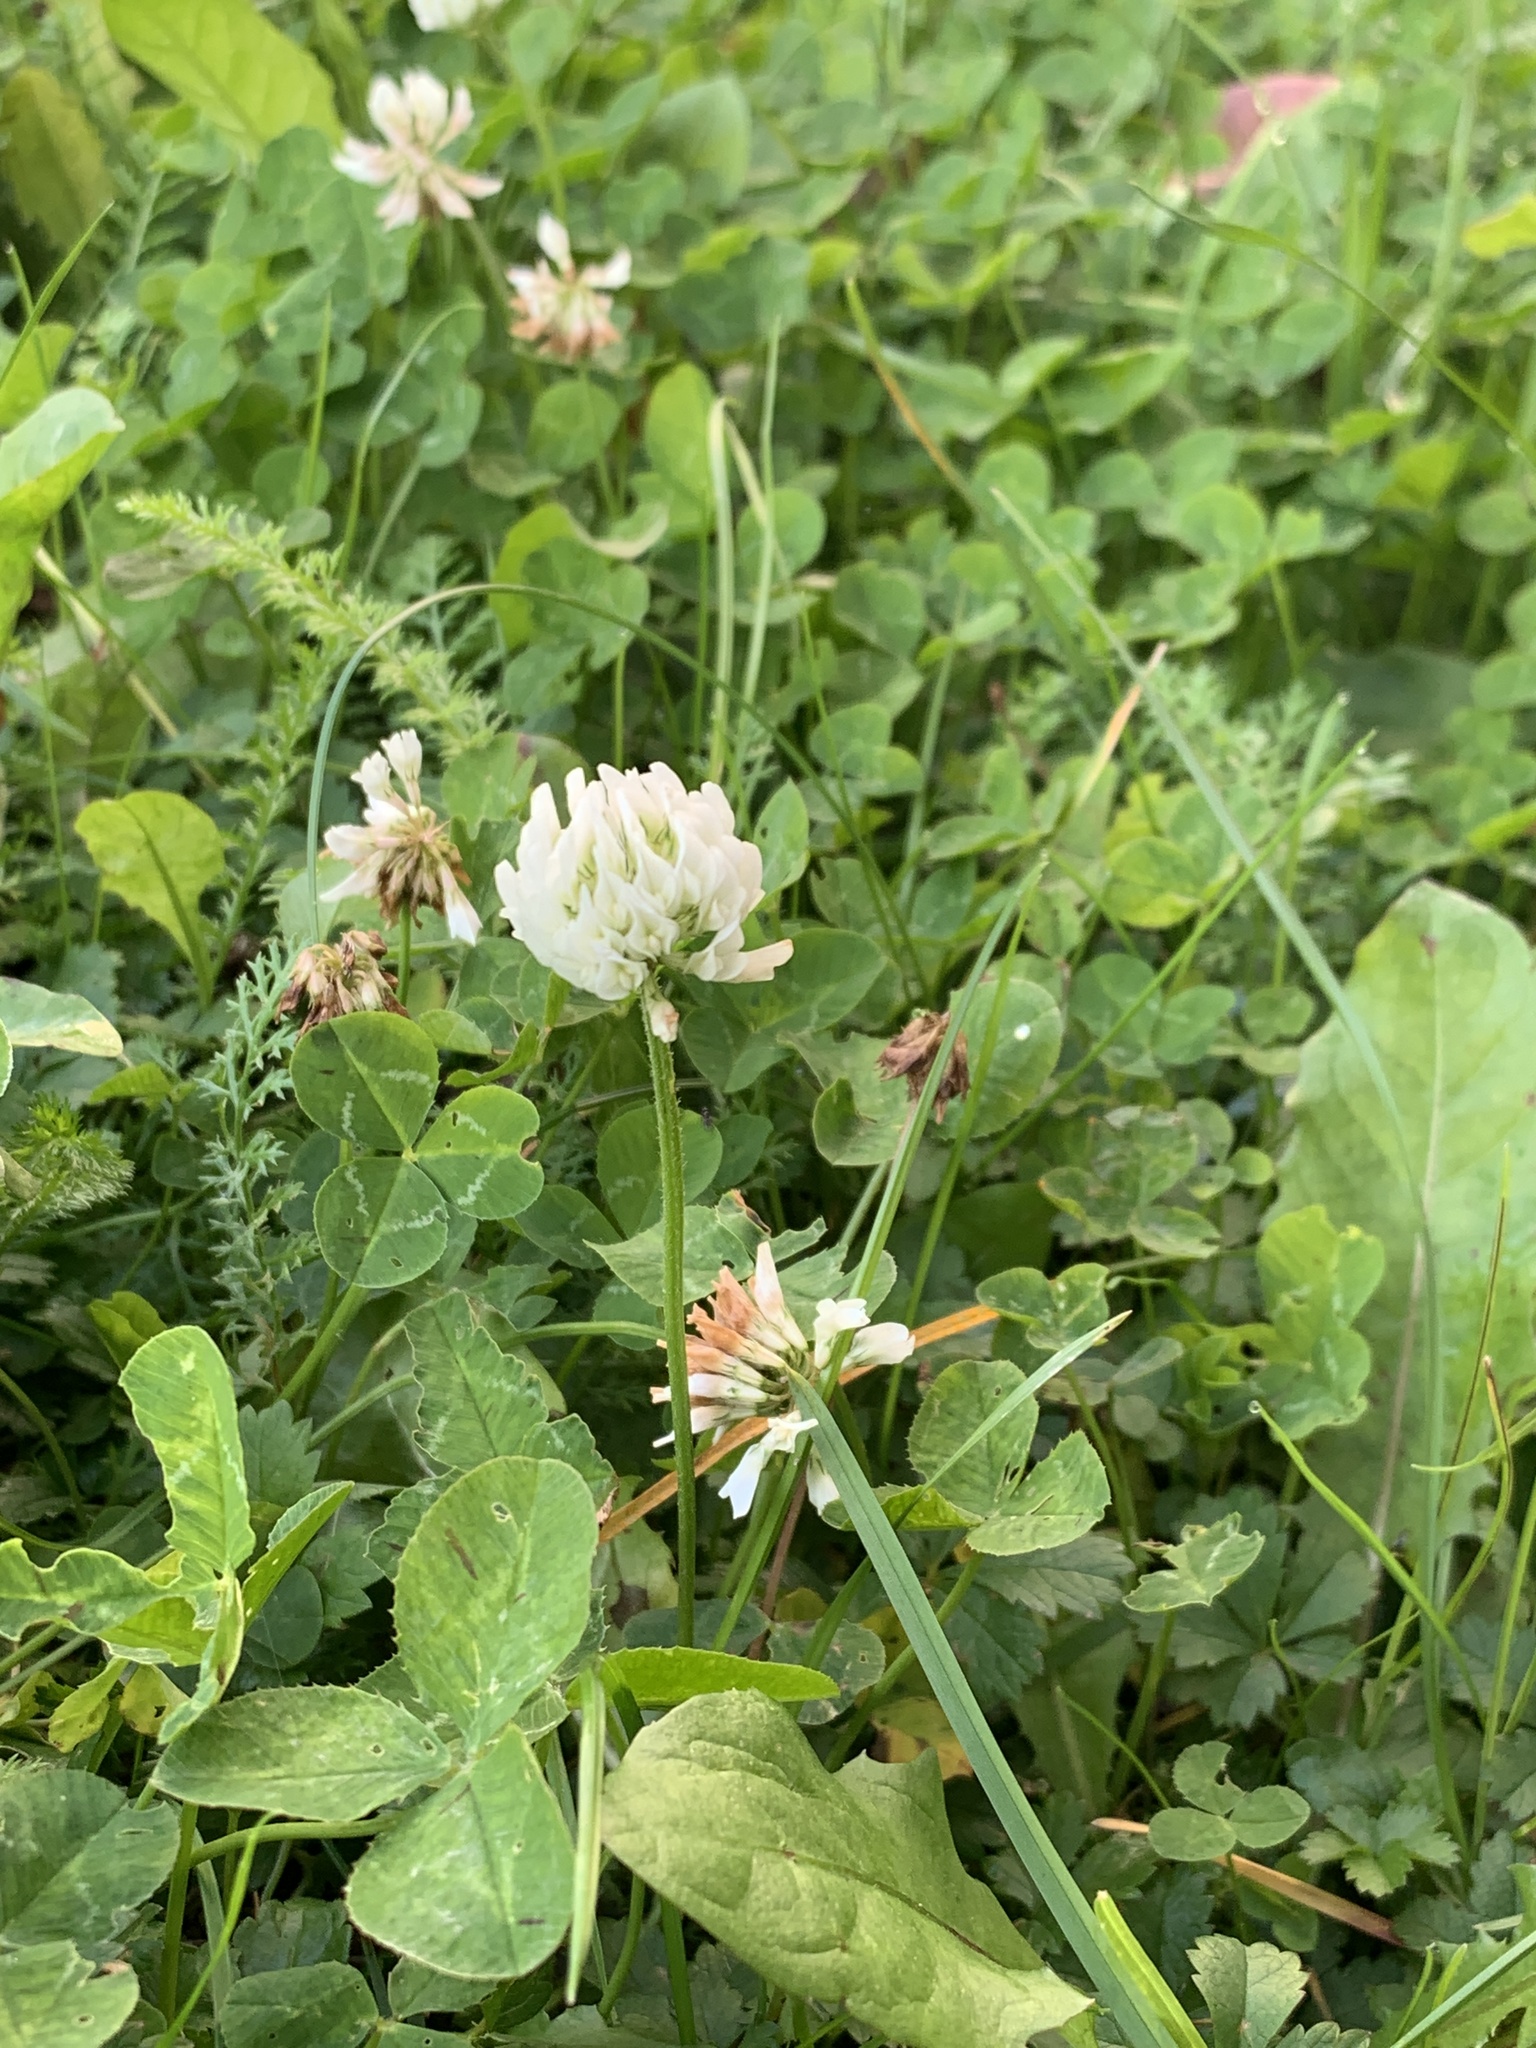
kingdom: Plantae
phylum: Tracheophyta
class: Magnoliopsida
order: Fabales
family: Fabaceae
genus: Trifolium
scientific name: Trifolium repens
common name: White clover
